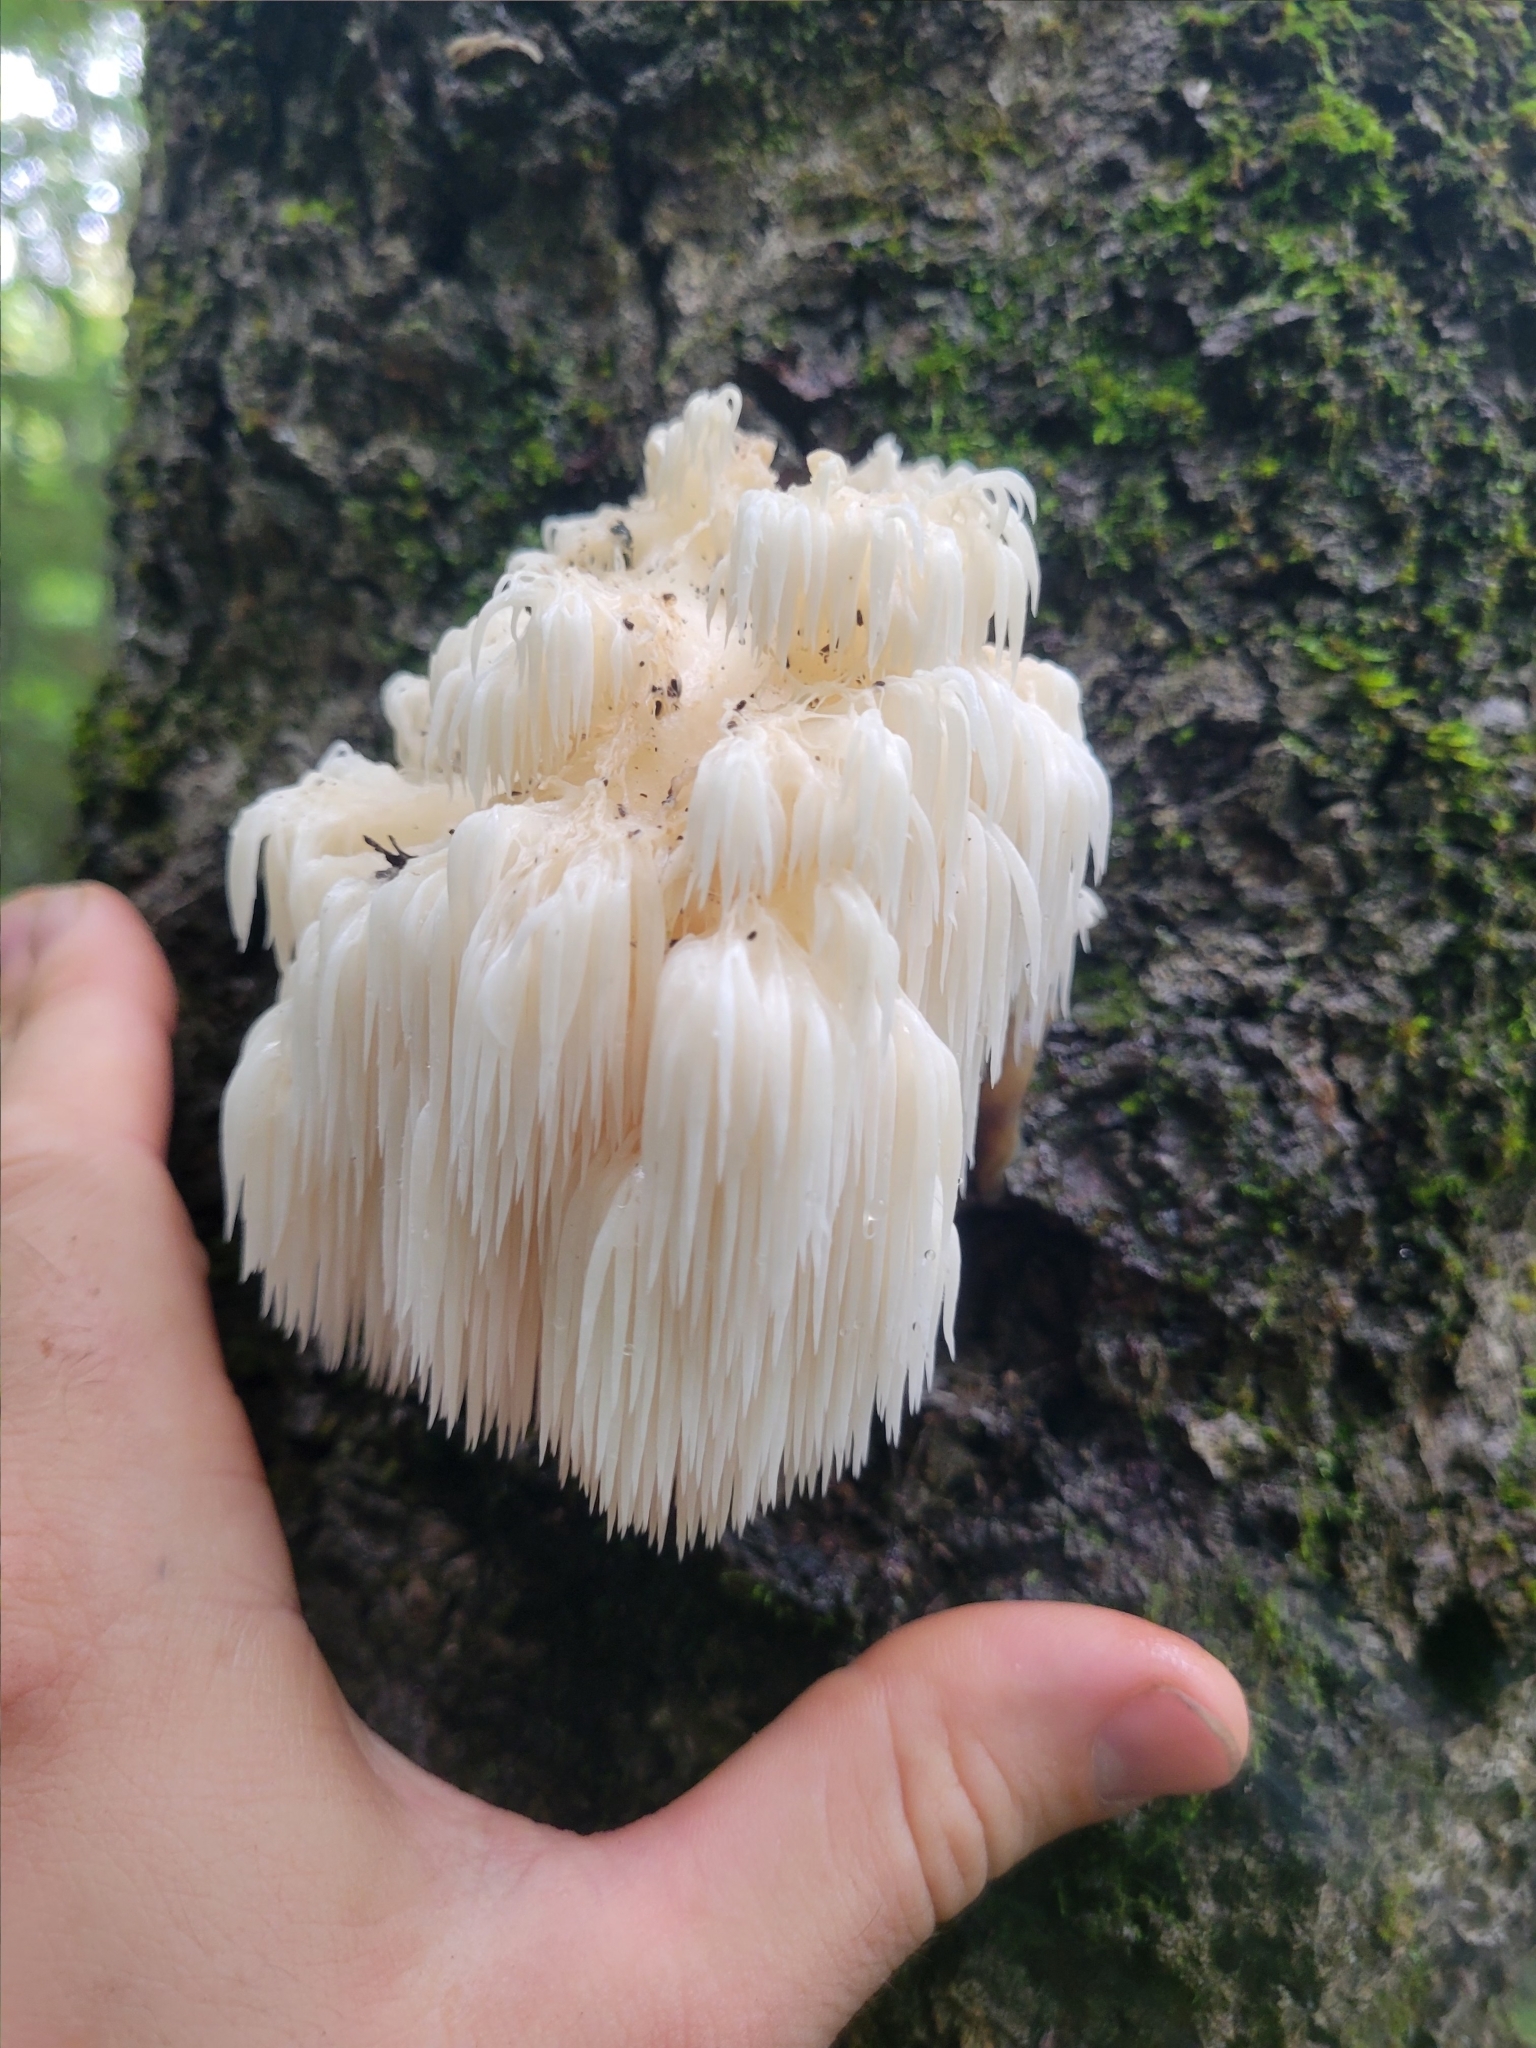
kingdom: Fungi
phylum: Basidiomycota
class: Agaricomycetes
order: Russulales
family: Hericiaceae
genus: Hericium
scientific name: Hericium americanum
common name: Bear's head tooth
